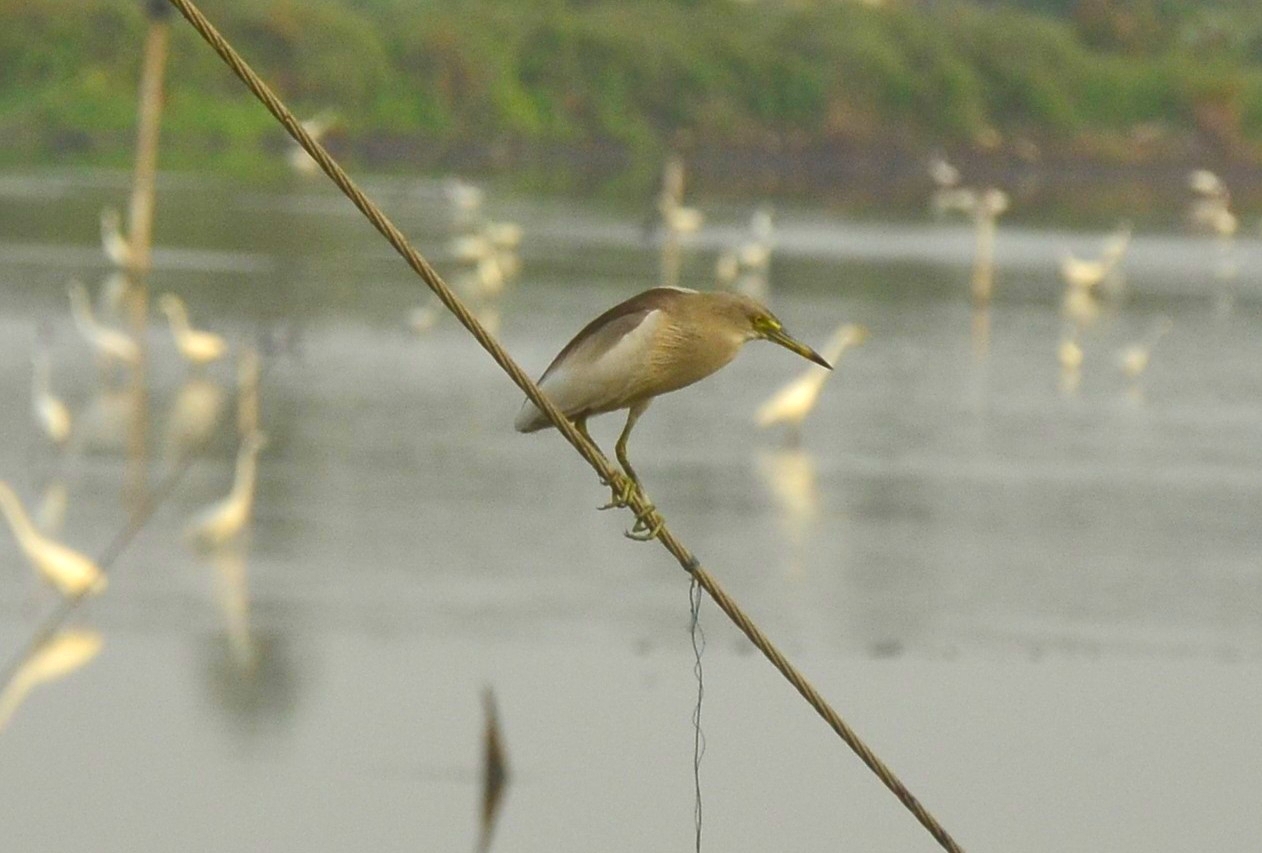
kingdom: Animalia
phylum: Chordata
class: Aves
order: Pelecaniformes
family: Ardeidae
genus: Ardeola
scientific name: Ardeola grayii
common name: Indian pond heron
